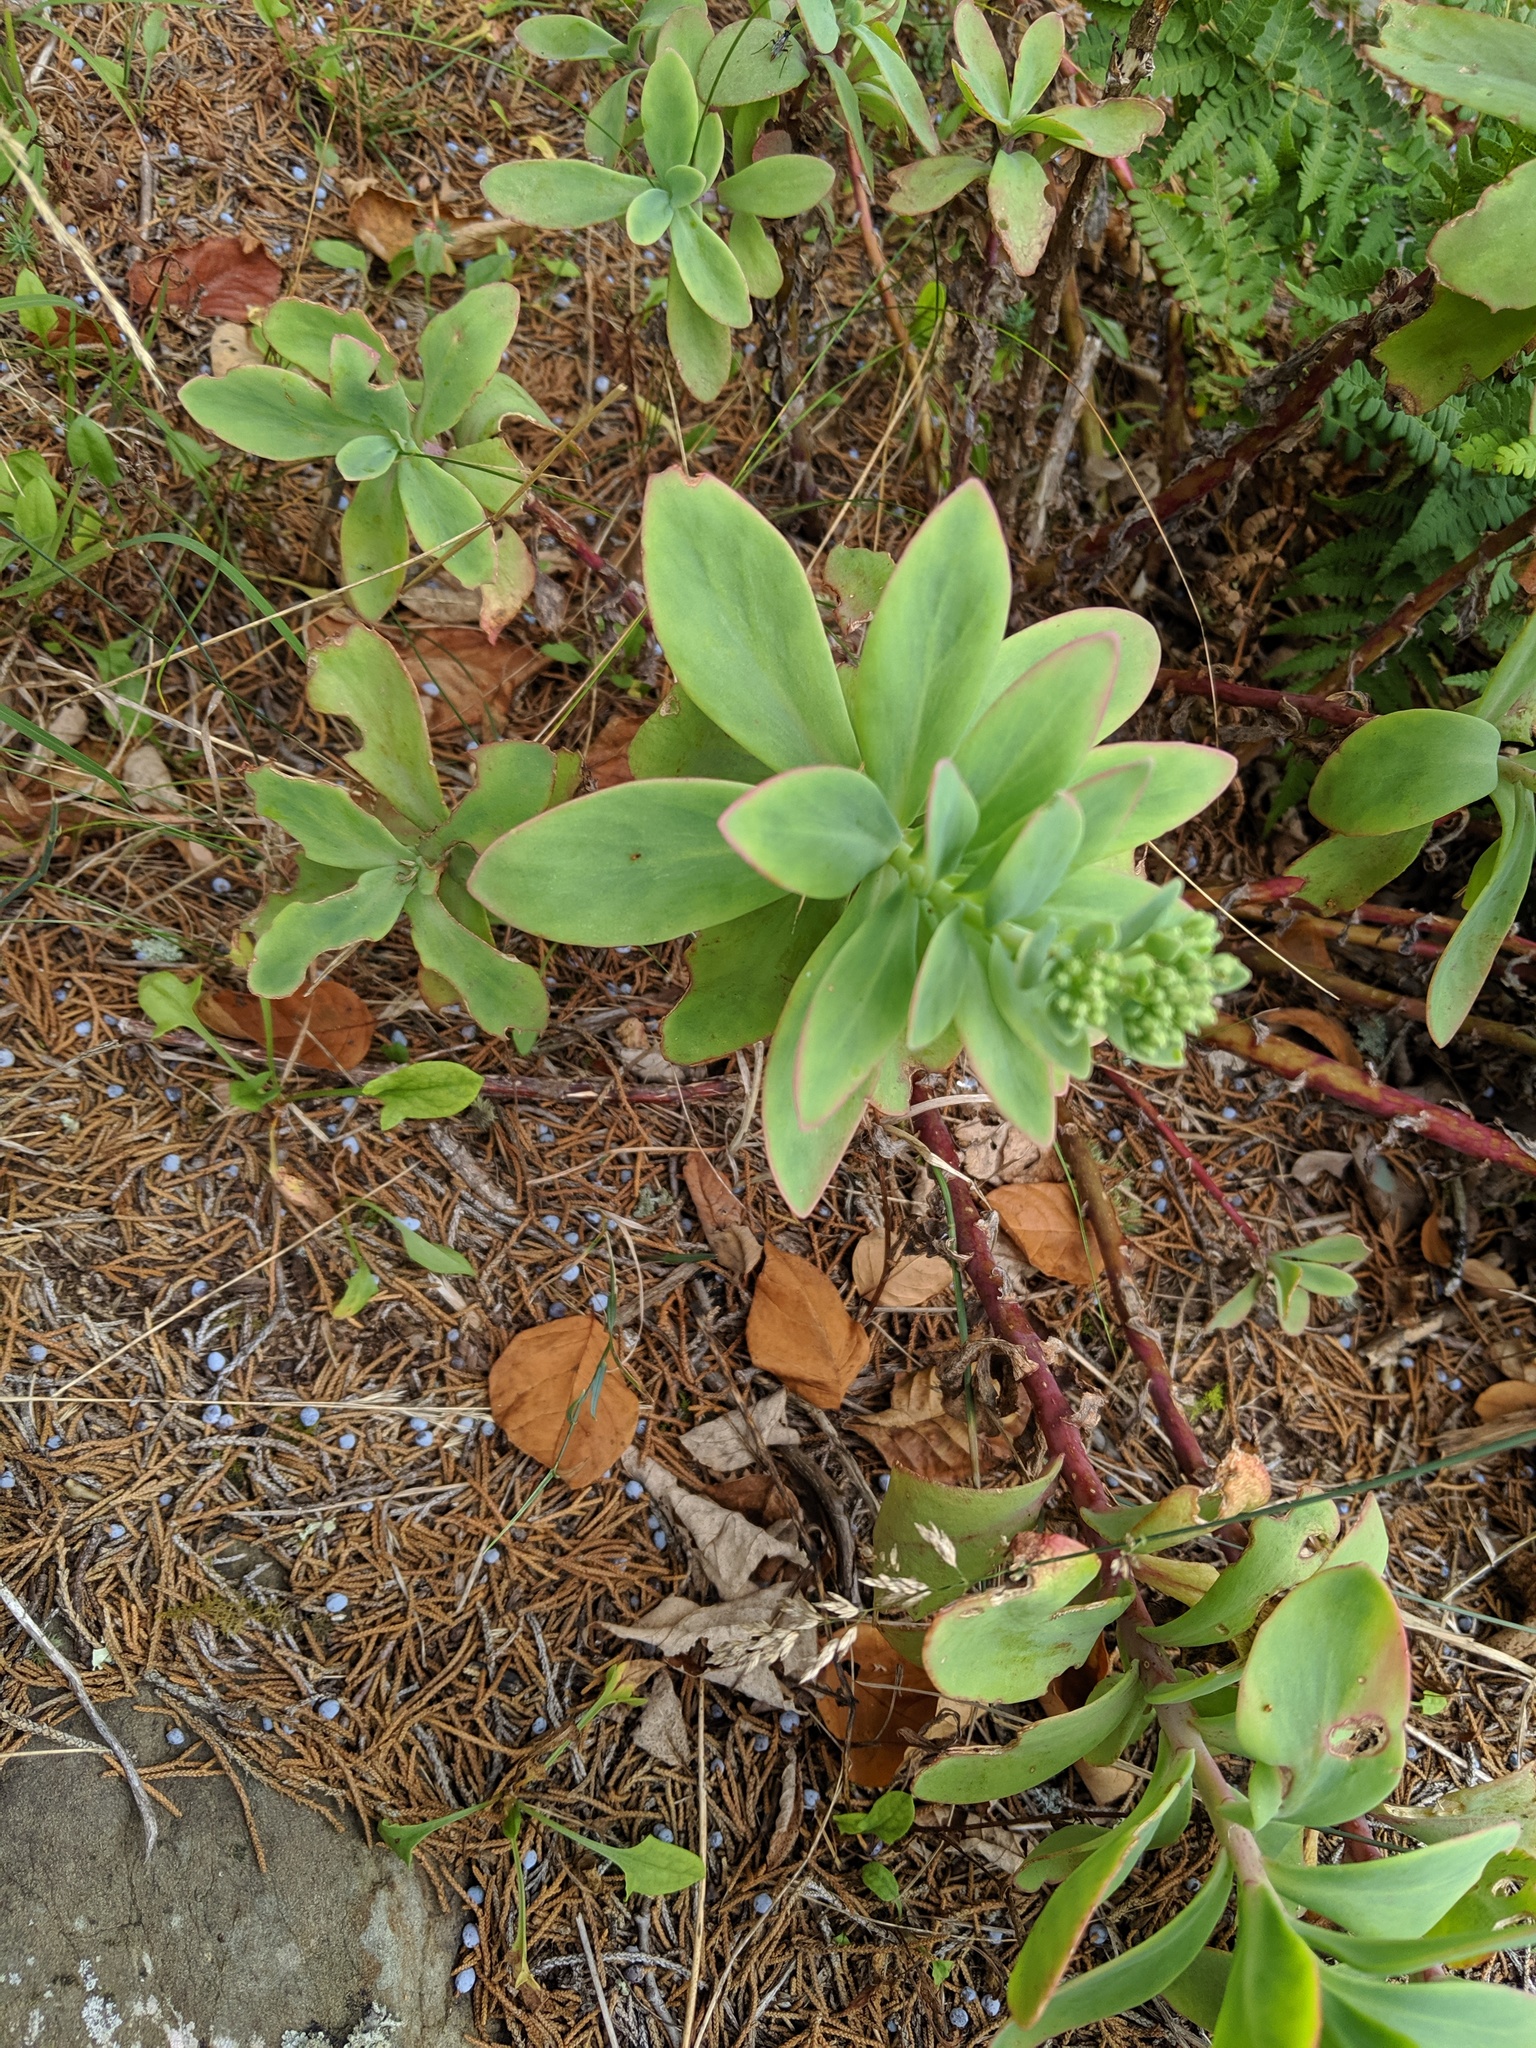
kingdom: Plantae
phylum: Tracheophyta
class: Magnoliopsida
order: Saxifragales
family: Crassulaceae
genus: Hylotelephium
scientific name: Hylotelephium telephioides
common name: Allegheny stonecrop
